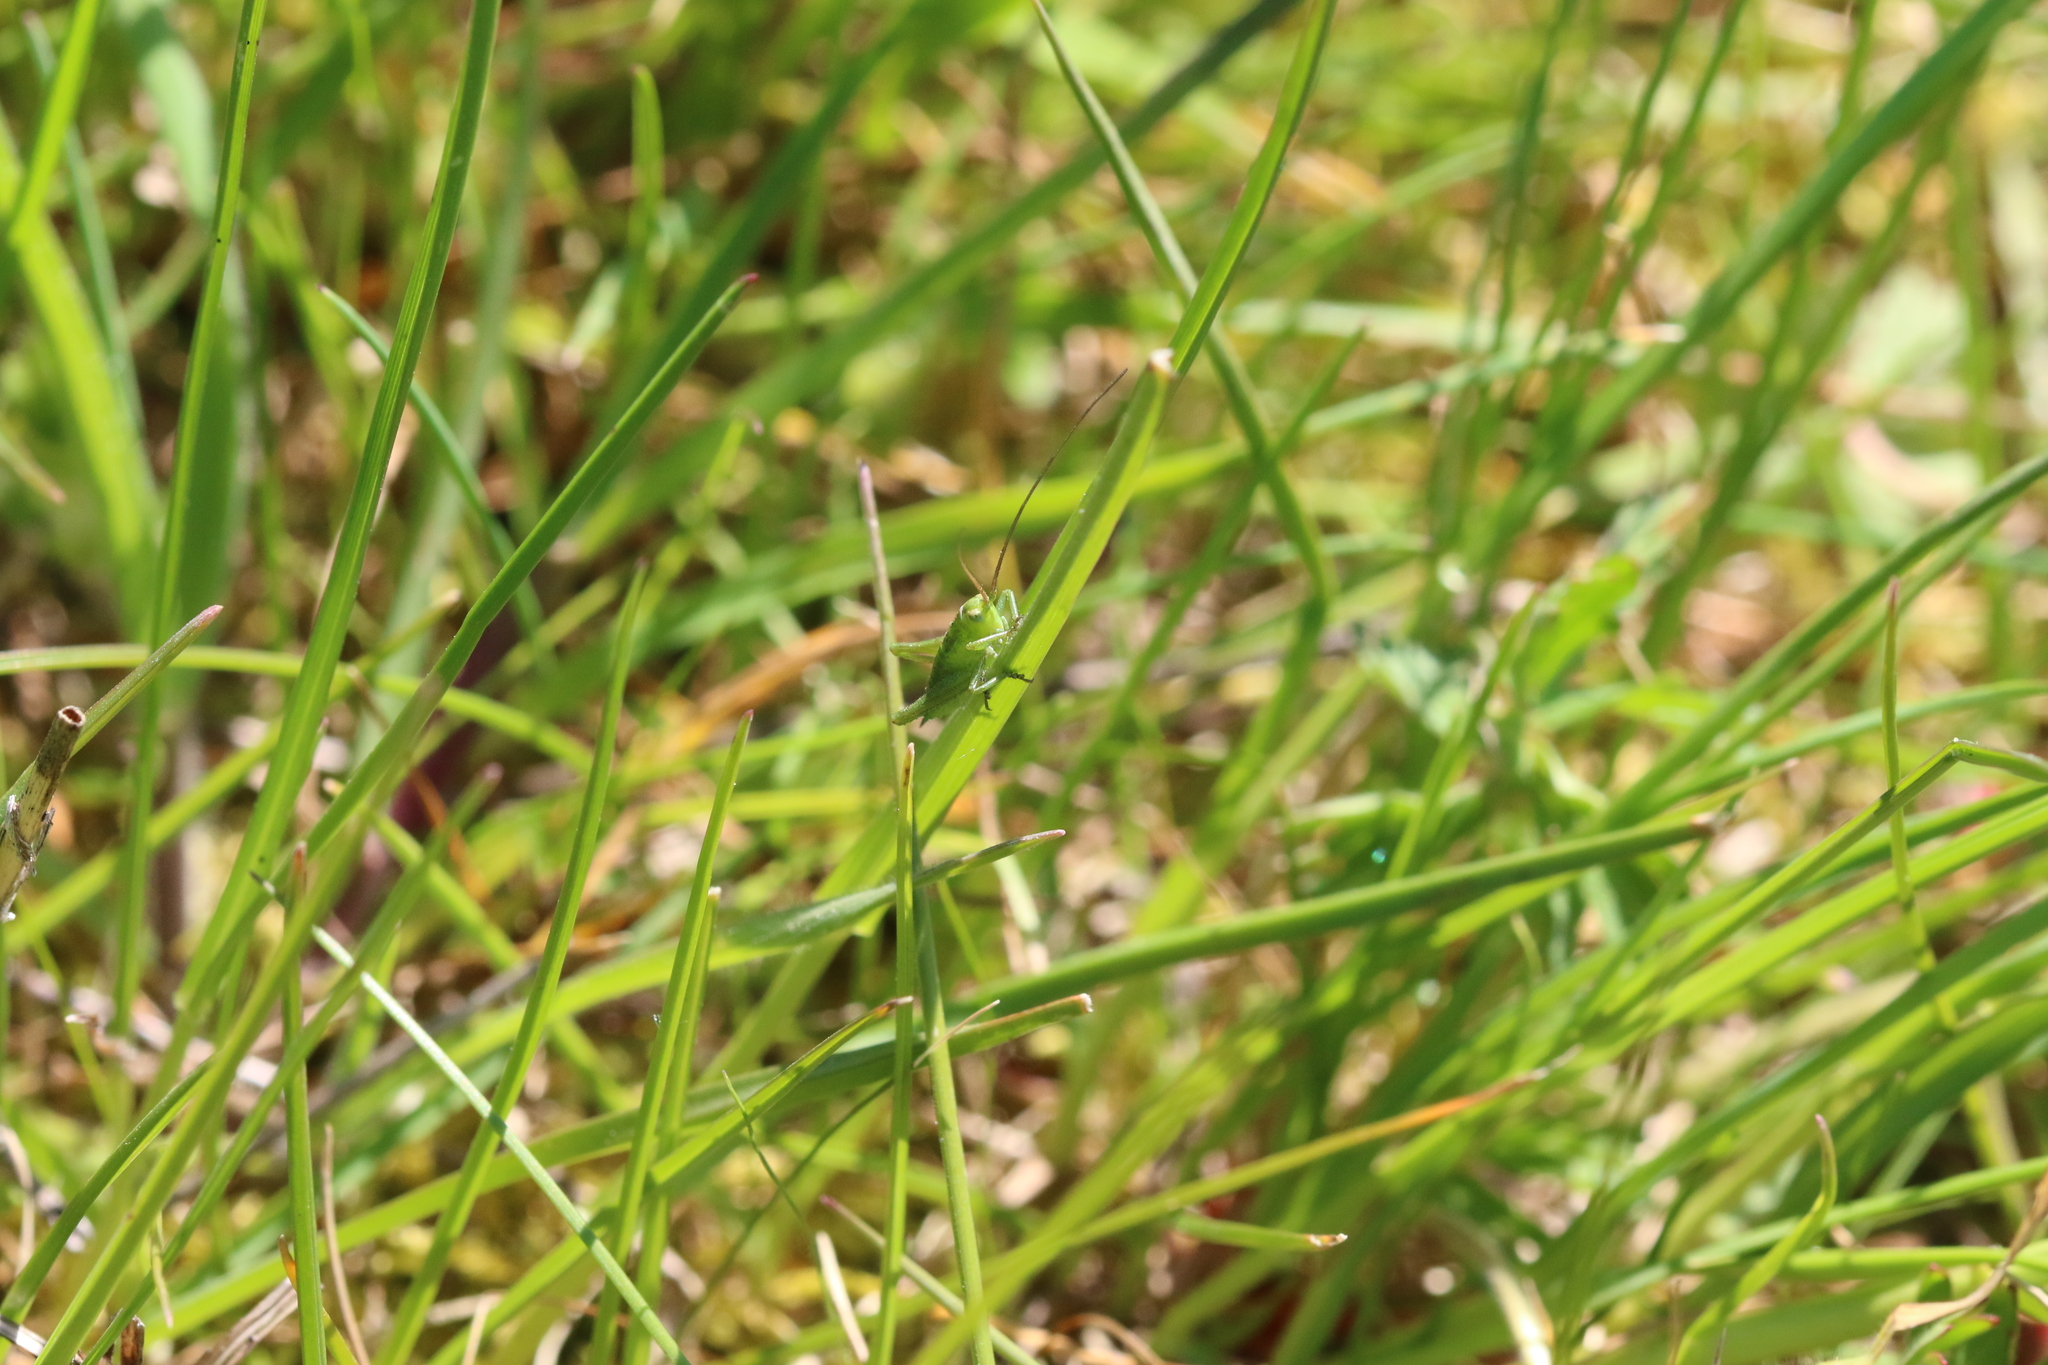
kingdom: Animalia
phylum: Arthropoda
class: Insecta
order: Orthoptera
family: Tettigoniidae
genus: Tettigonia
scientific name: Tettigonia viridissima
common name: Great green bush-cricket
